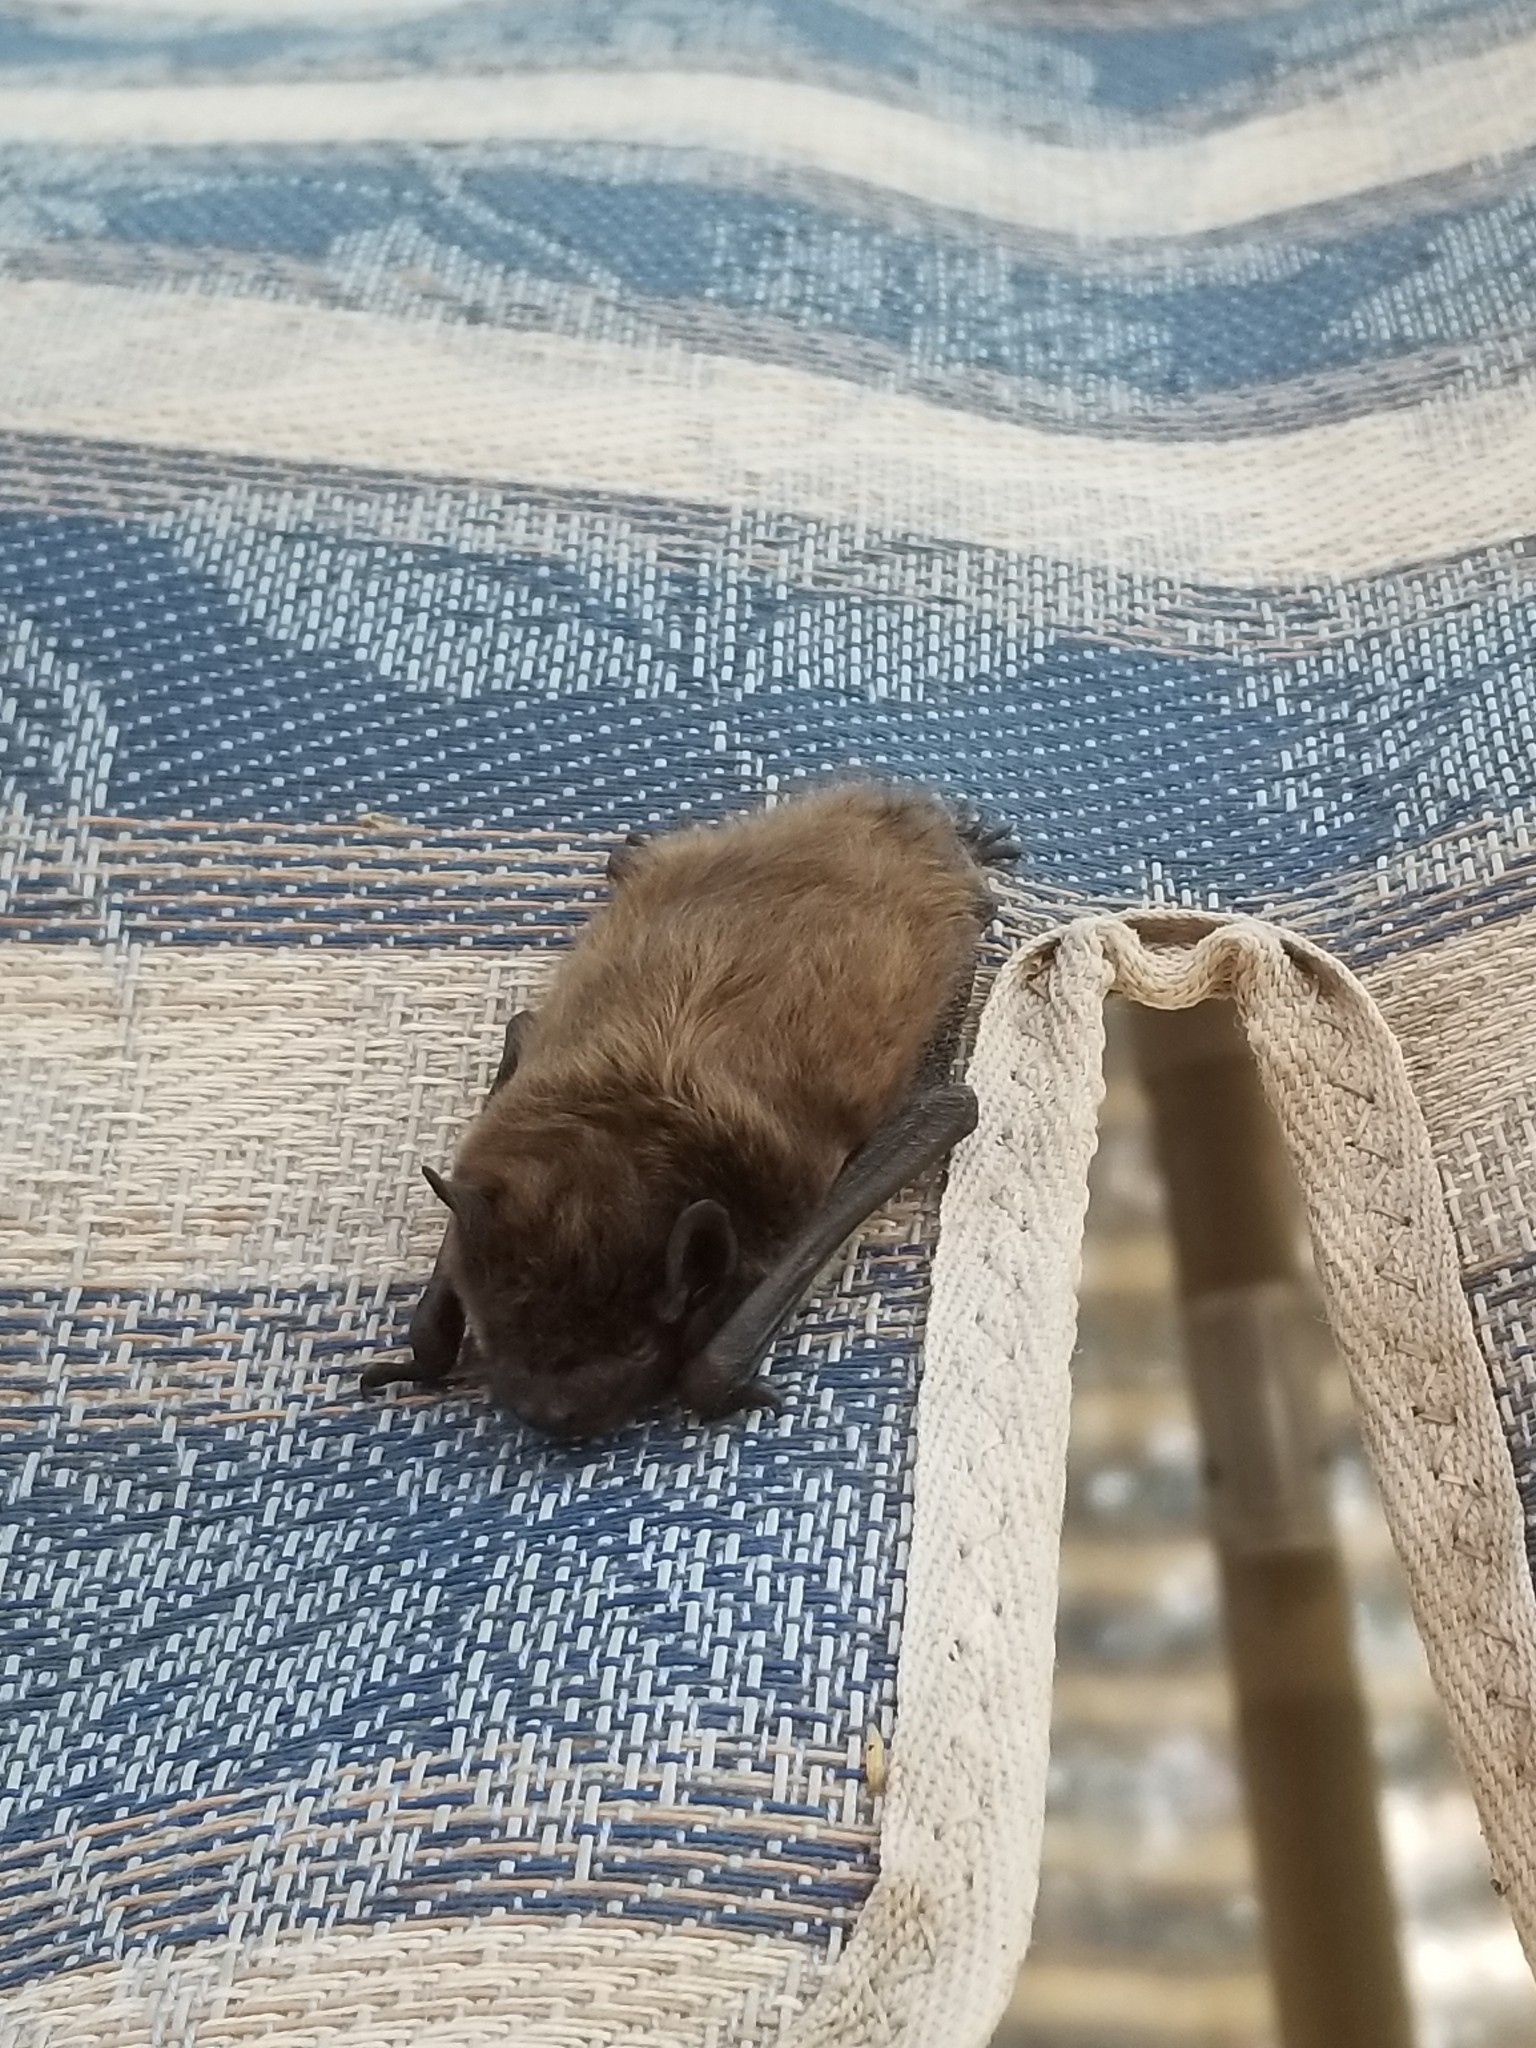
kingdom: Animalia
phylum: Chordata
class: Mammalia
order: Chiroptera
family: Vespertilionidae
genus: Nycticeius
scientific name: Nycticeius humeralis
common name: Evening bat
